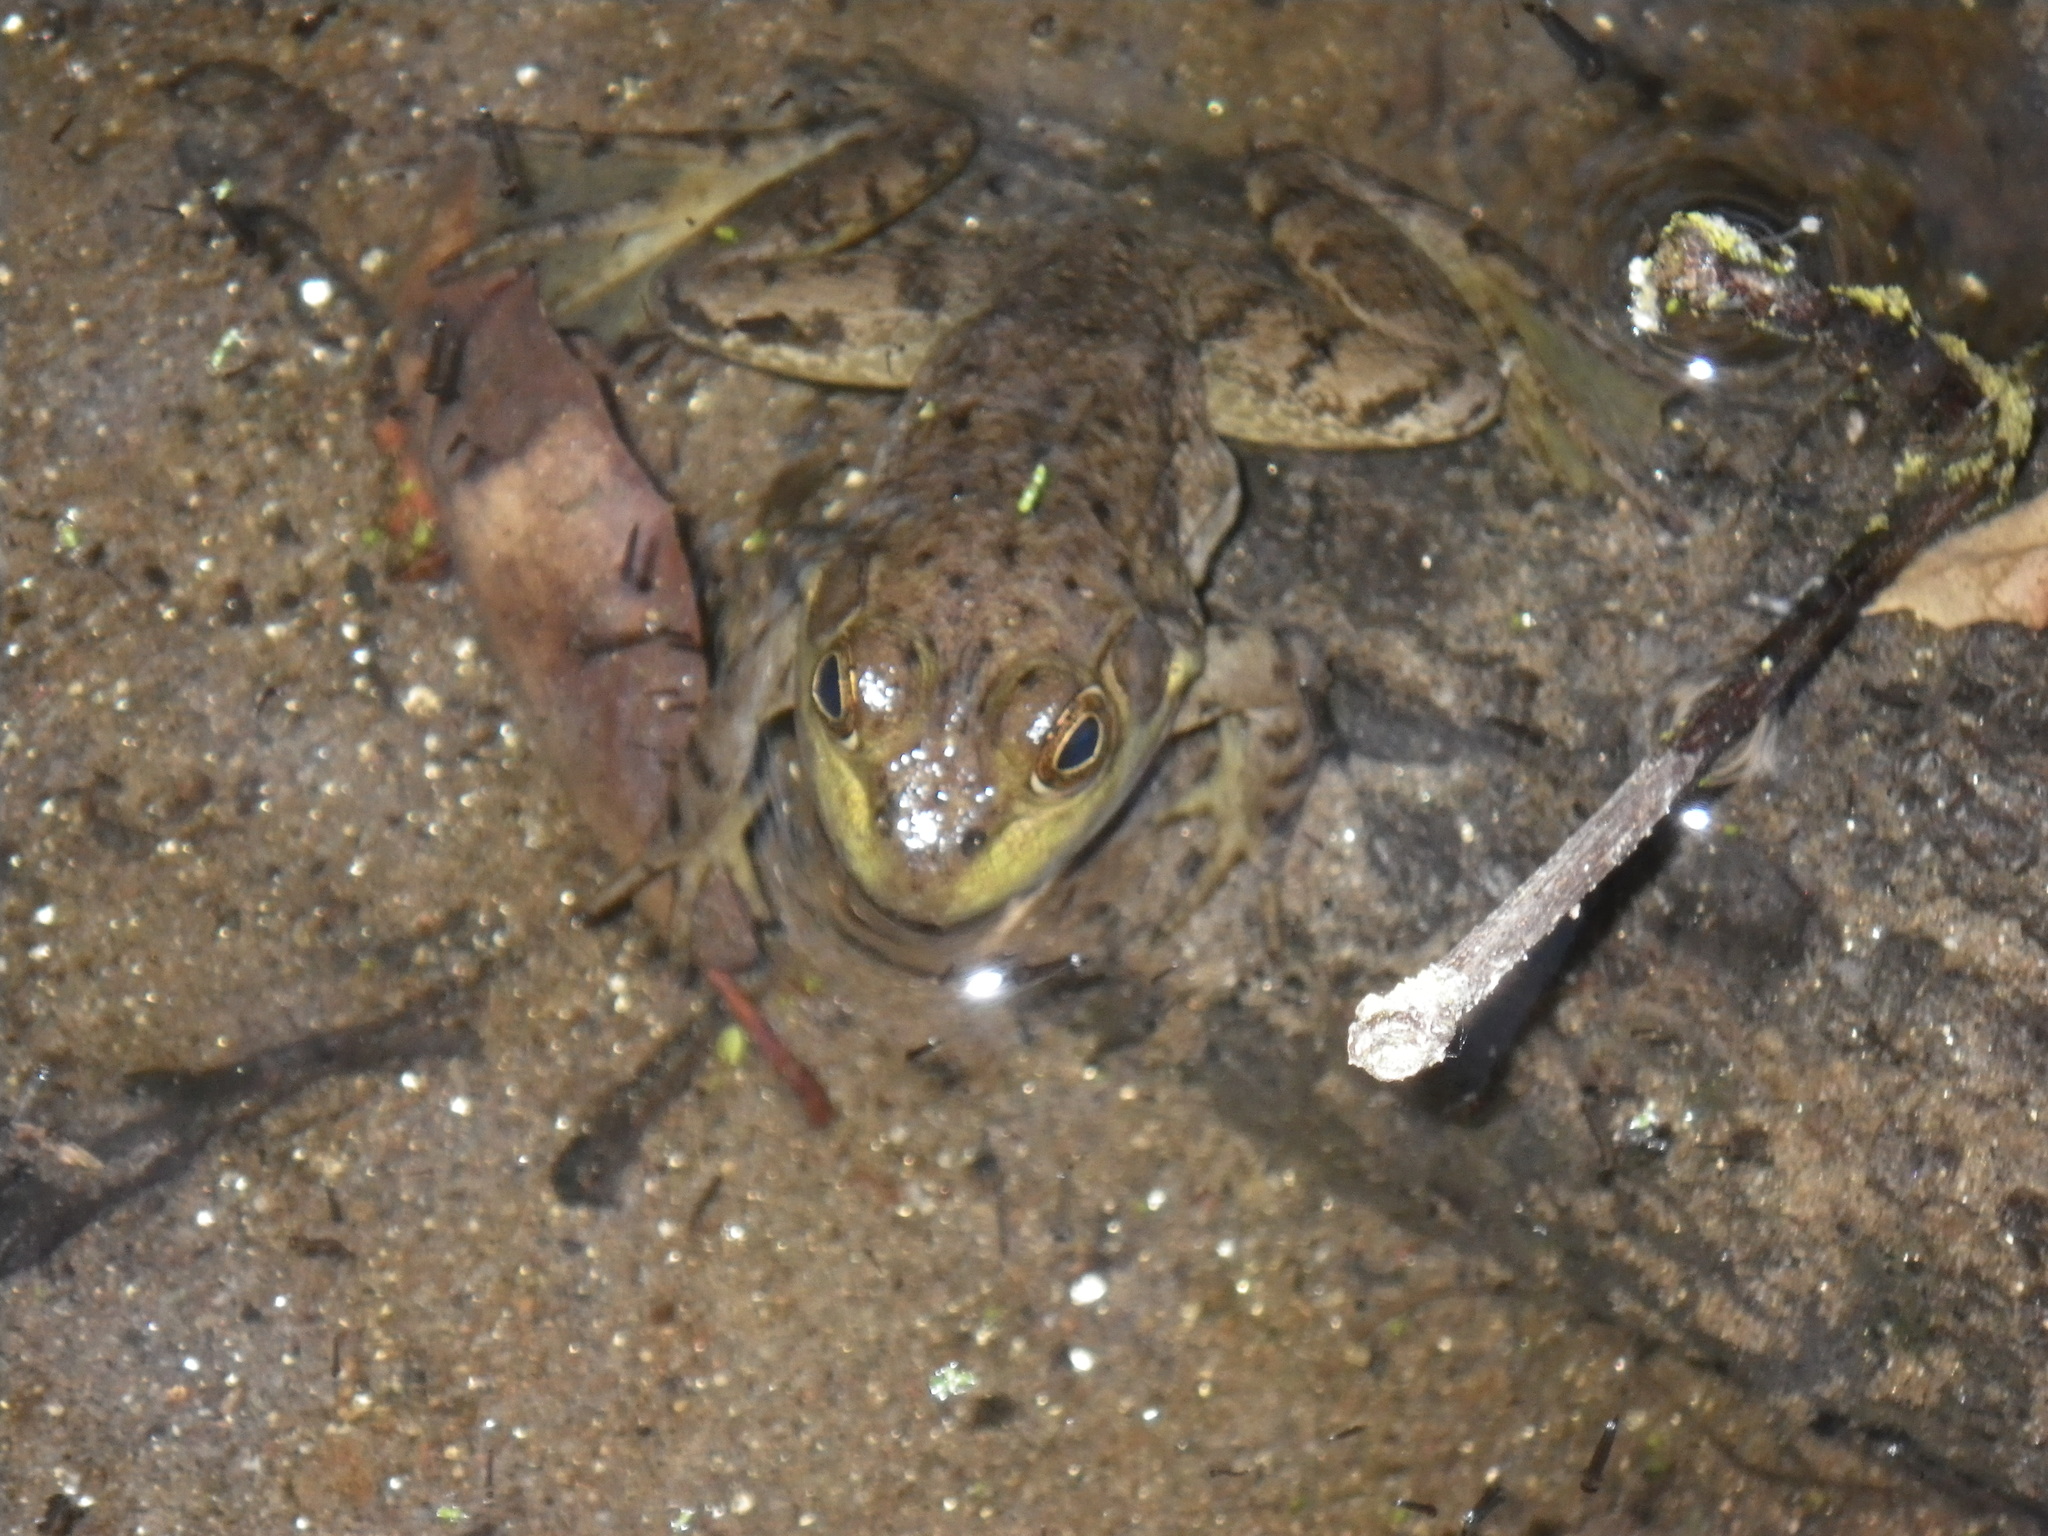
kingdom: Animalia
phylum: Chordata
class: Amphibia
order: Anura
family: Ranidae
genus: Lithobates
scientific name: Lithobates catesbeianus
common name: American bullfrog
